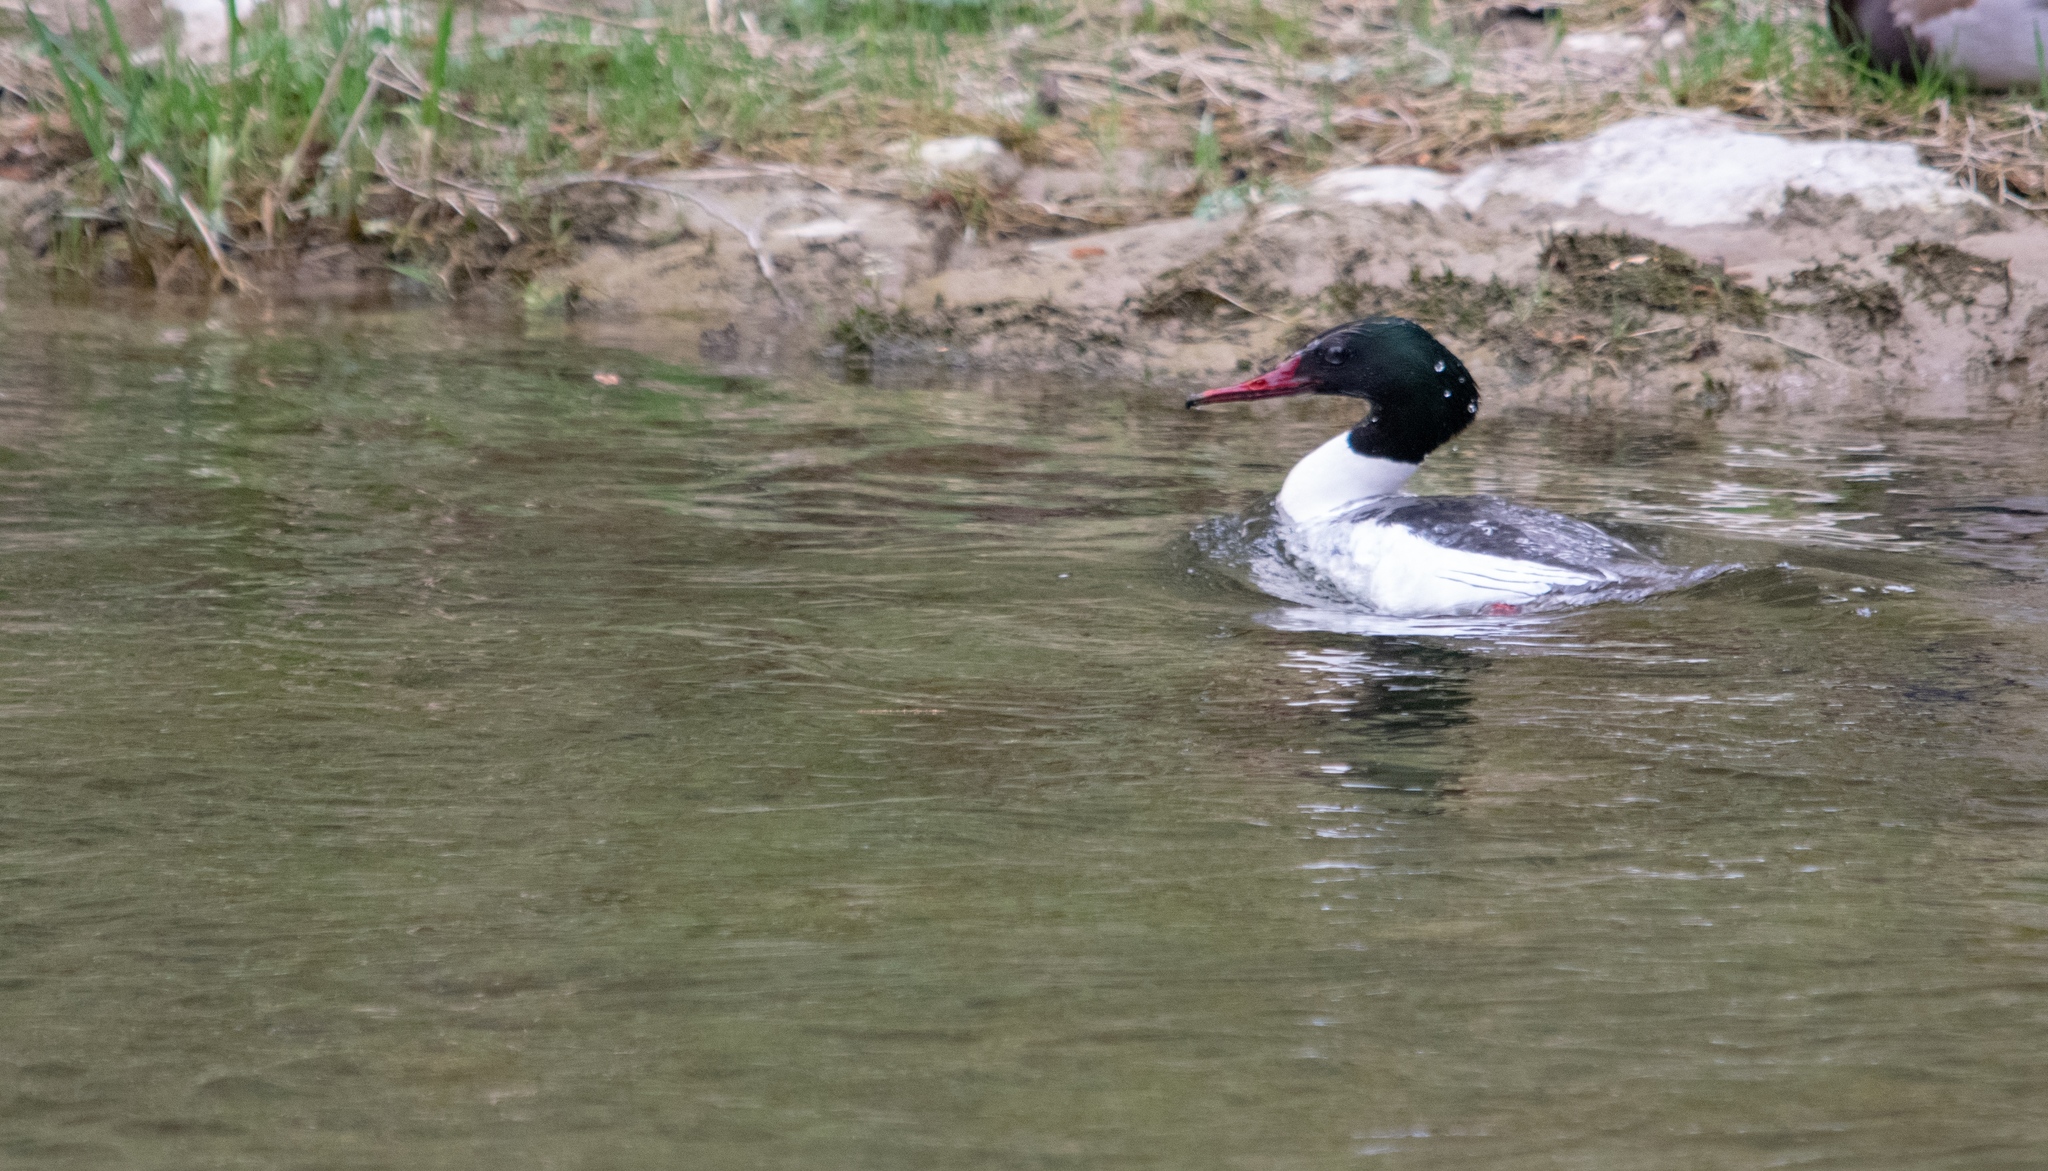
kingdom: Animalia
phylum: Chordata
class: Aves
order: Anseriformes
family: Anatidae
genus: Mergus
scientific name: Mergus merganser
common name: Common merganser
